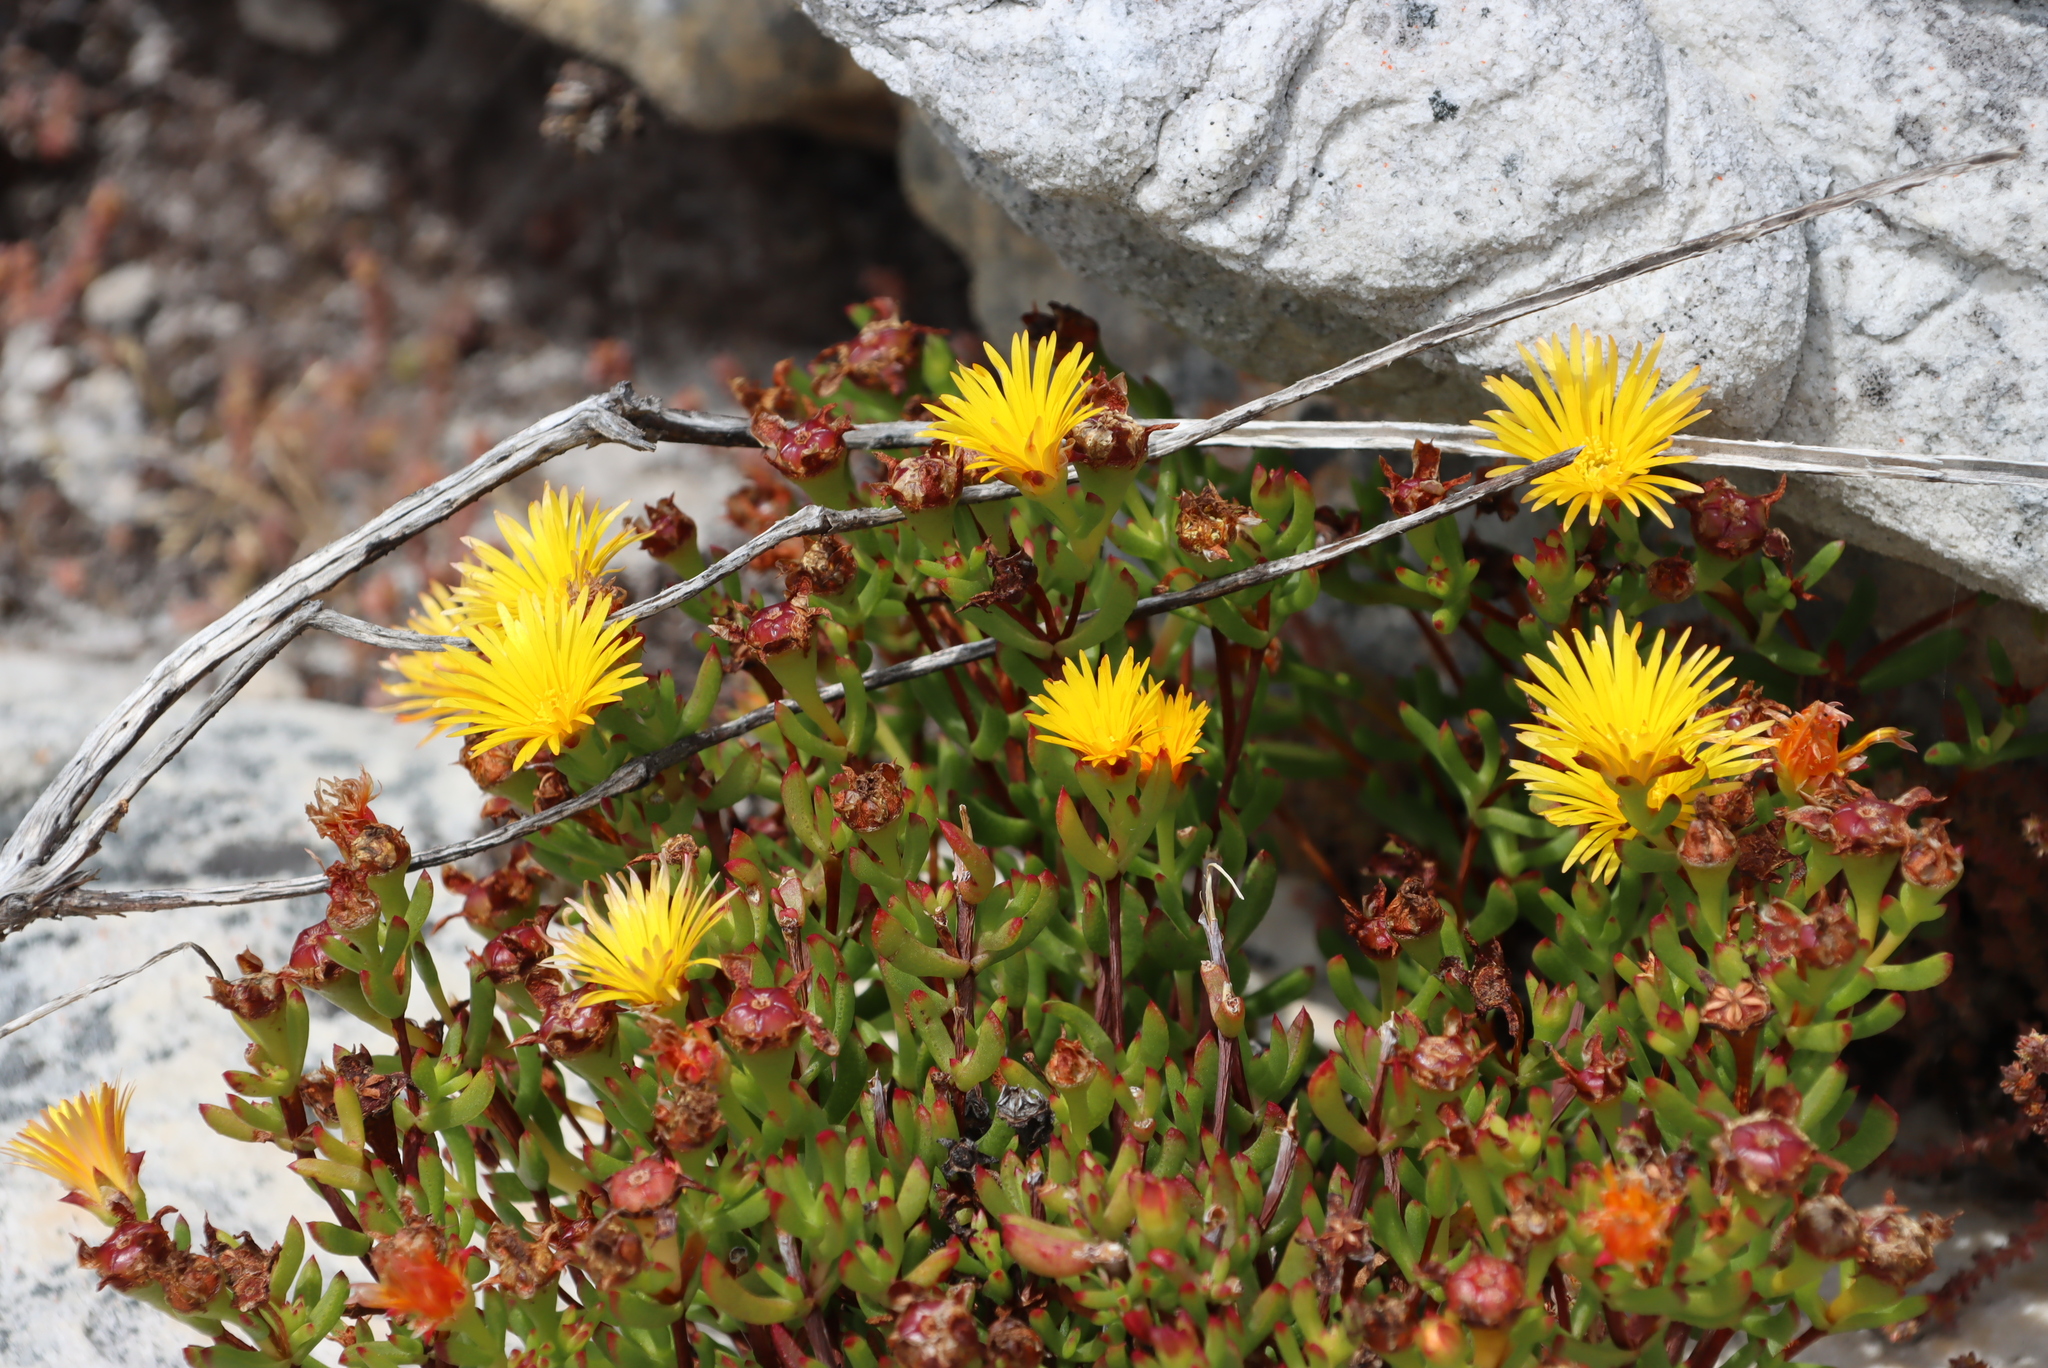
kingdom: Plantae
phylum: Tracheophyta
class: Magnoliopsida
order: Caryophyllales
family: Aizoaceae
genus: Lampranthus
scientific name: Lampranthus promontorii
